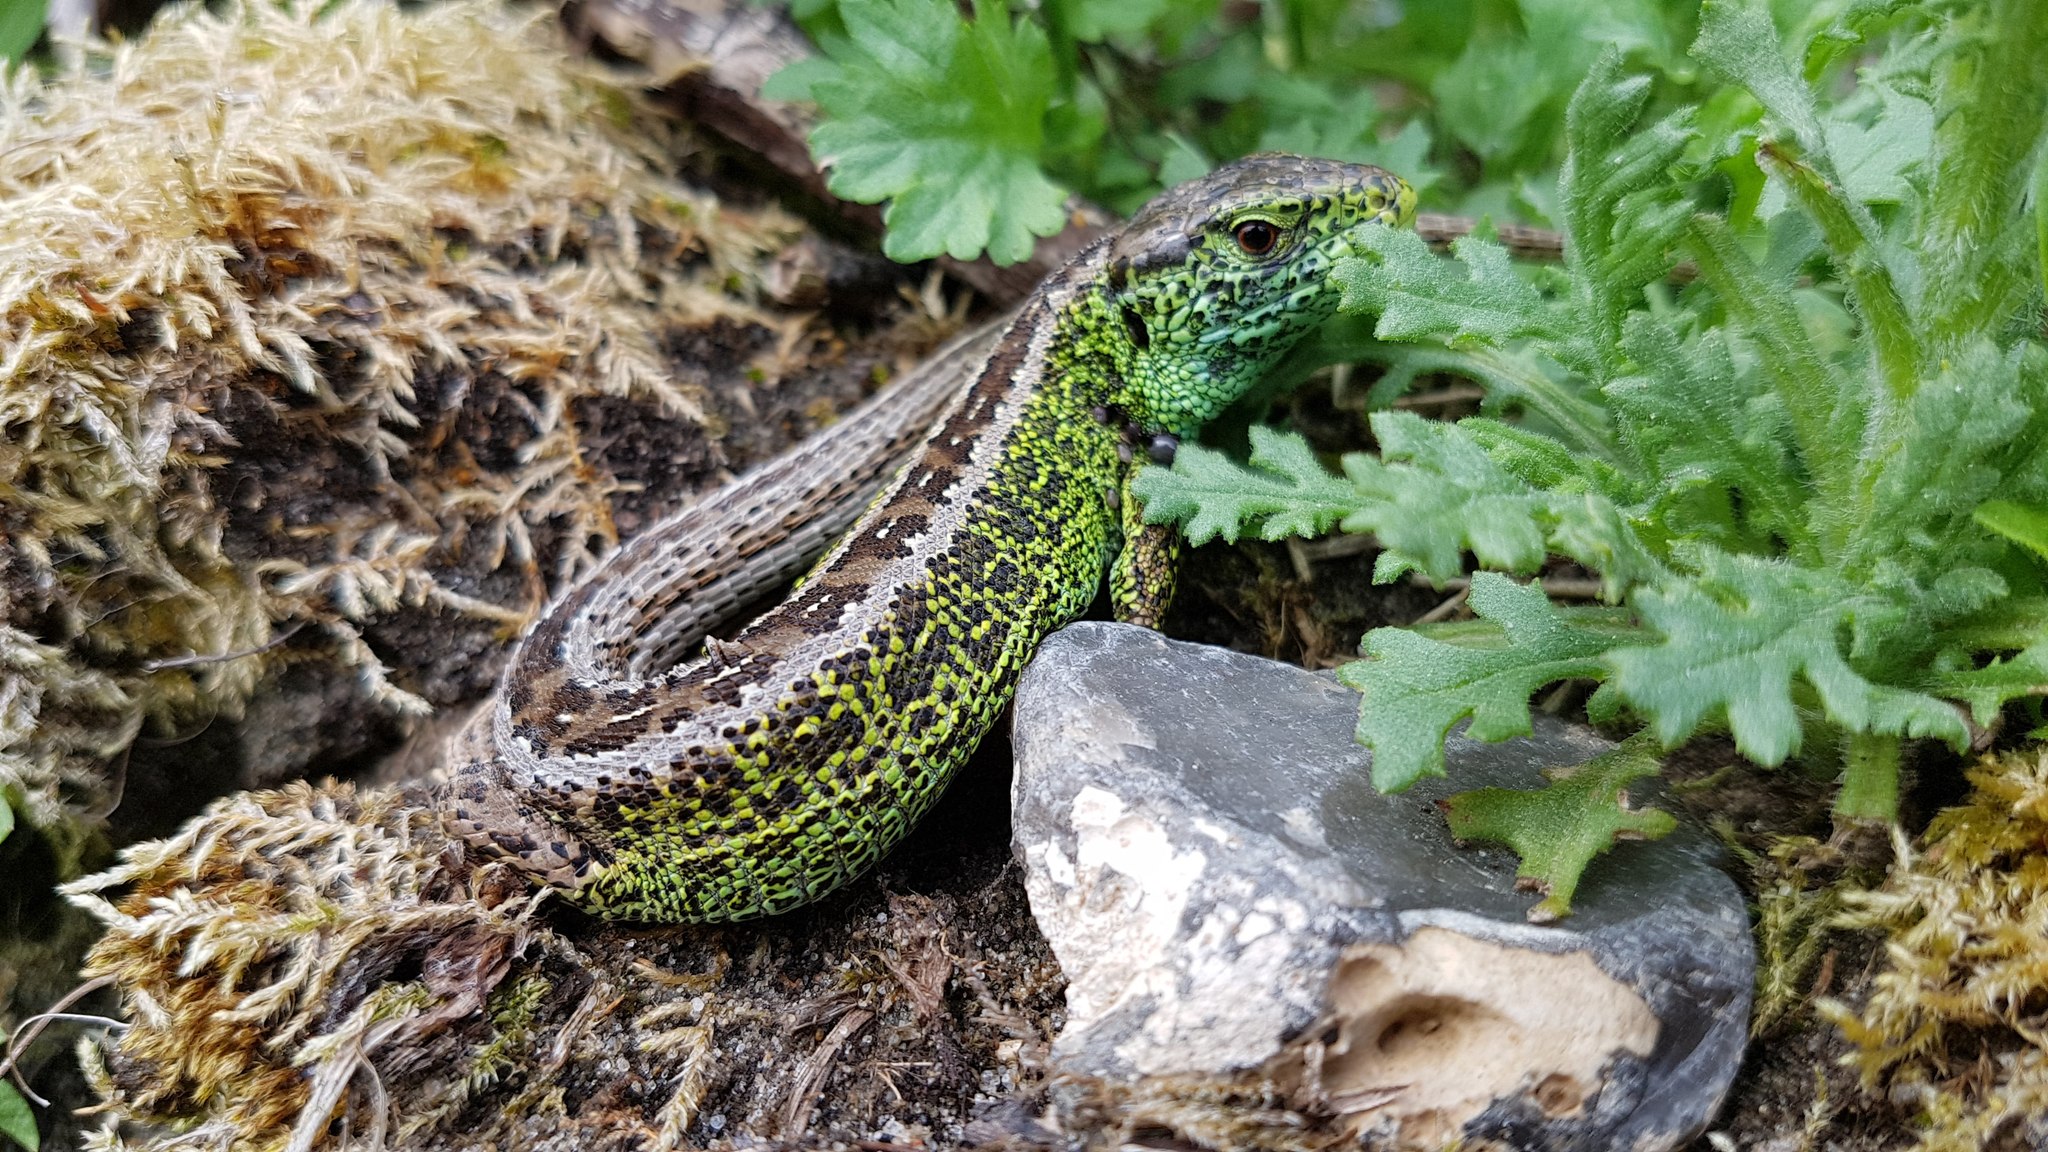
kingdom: Animalia
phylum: Chordata
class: Squamata
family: Lacertidae
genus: Lacerta
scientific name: Lacerta agilis
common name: Sand lizard
